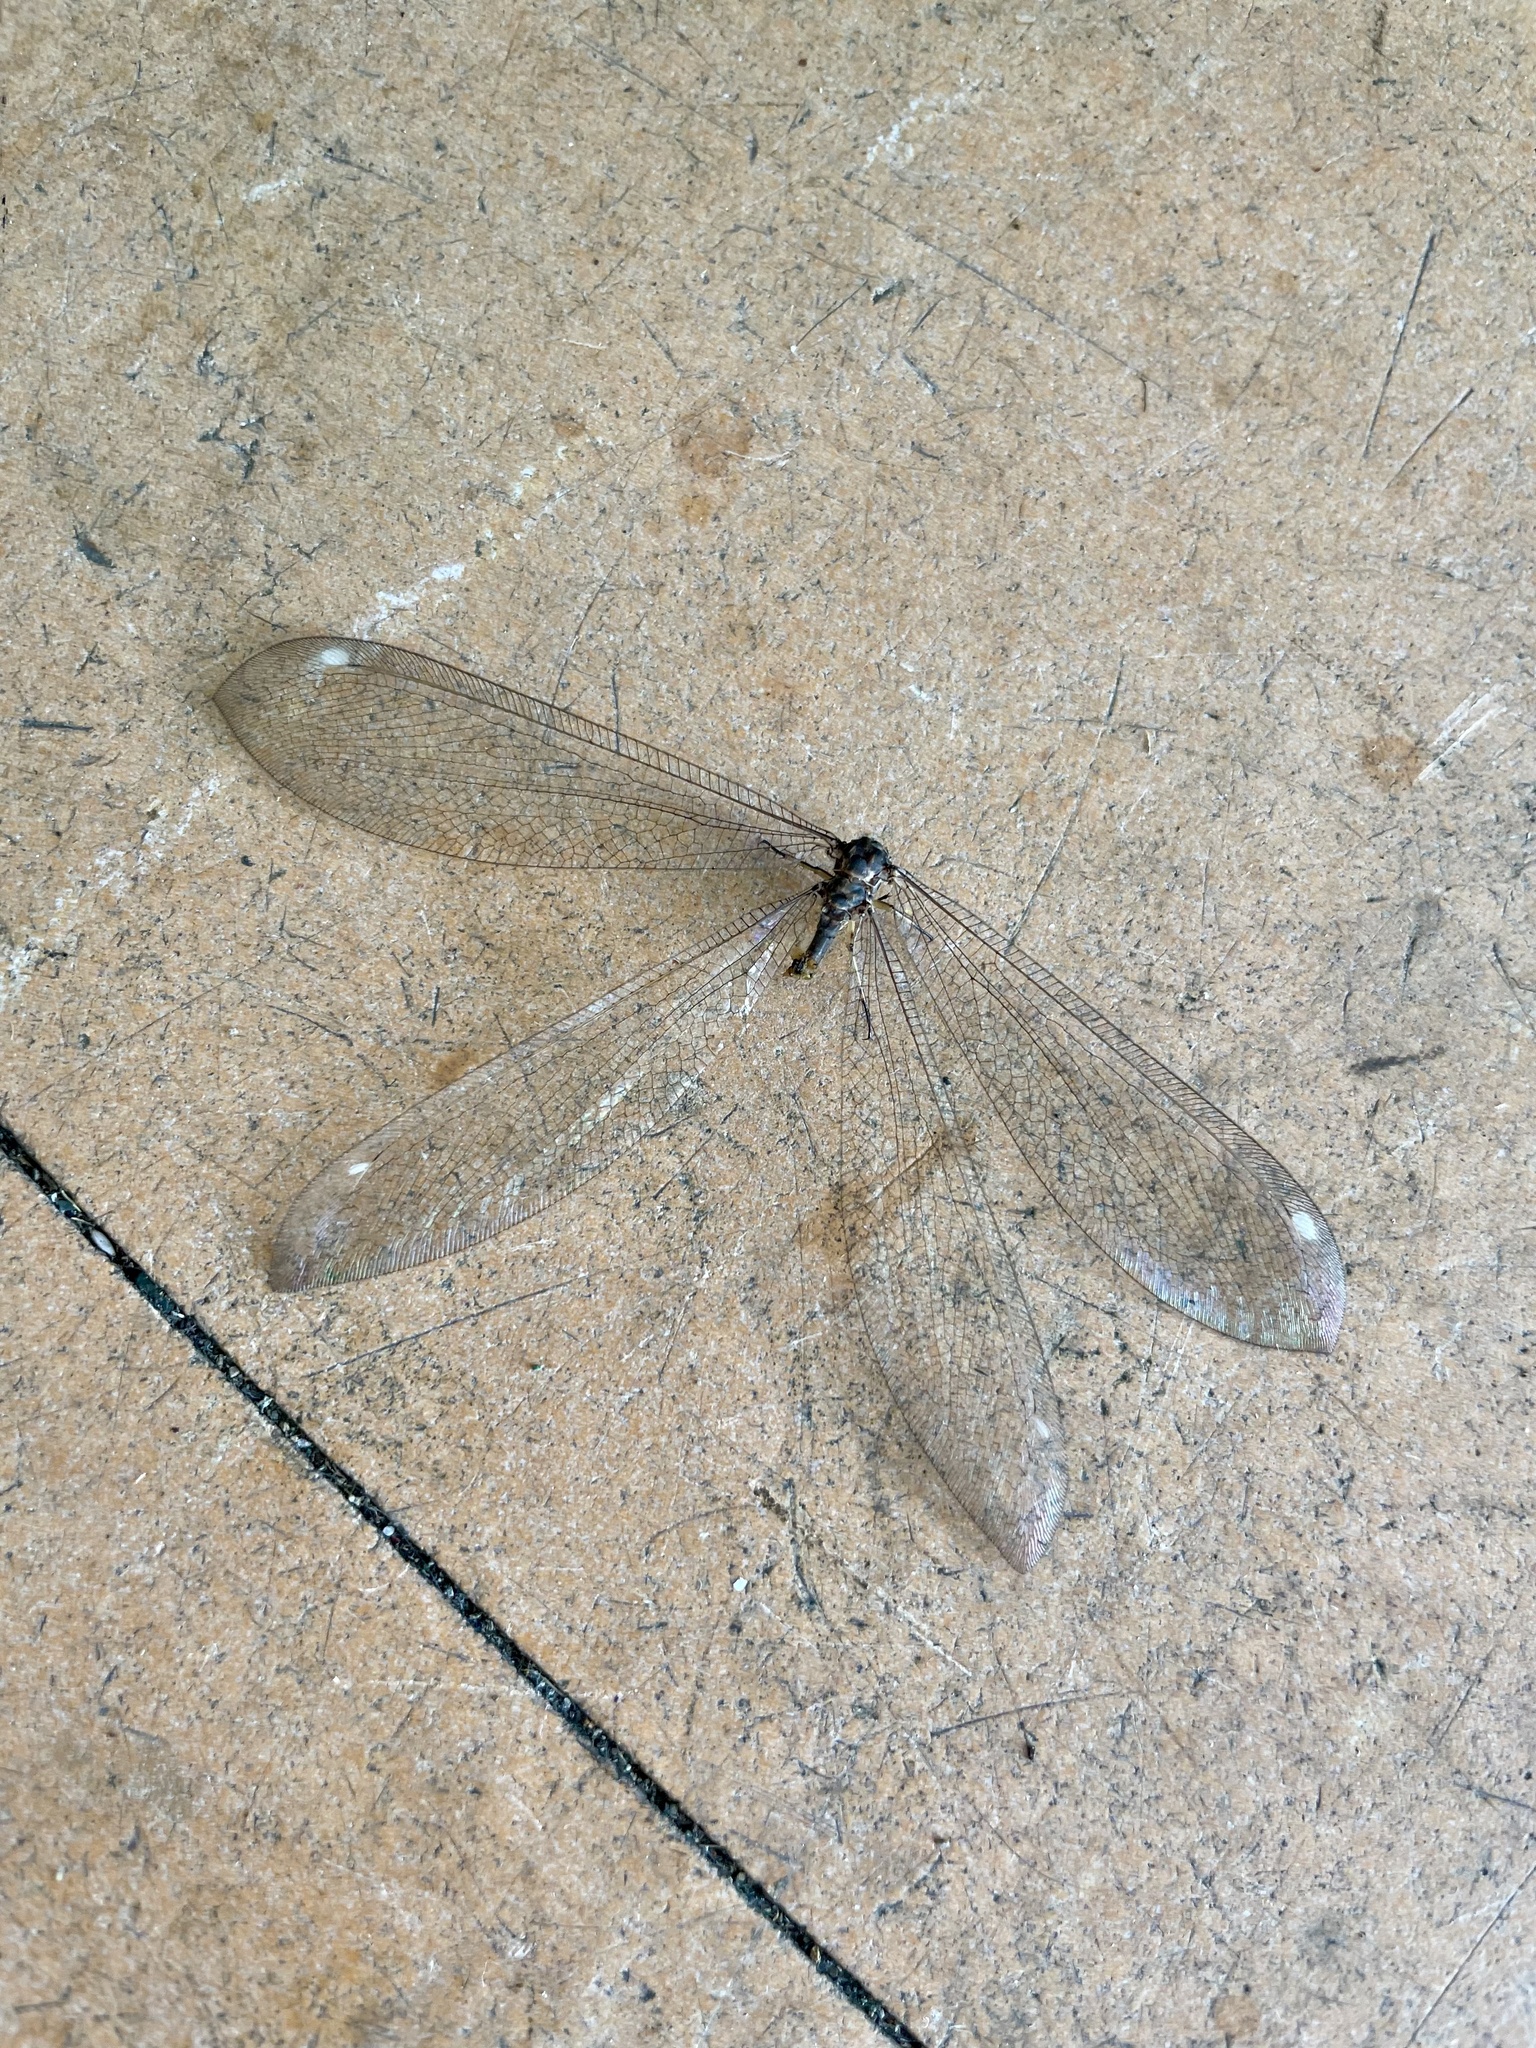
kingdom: Animalia
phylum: Arthropoda
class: Insecta
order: Neuroptera
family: Myrmeleontidae
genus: Hagenomyia
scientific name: Hagenomyia micans
